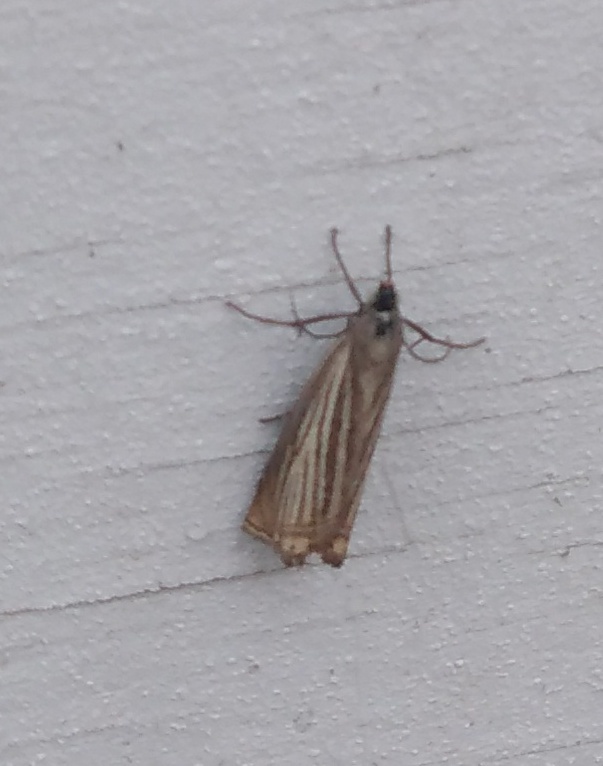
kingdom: Animalia
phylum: Arthropoda
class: Insecta
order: Lepidoptera
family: Crambidae
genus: Chrysoteuchia
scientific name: Chrysoteuchia culmella
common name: Garden grass-veneer
